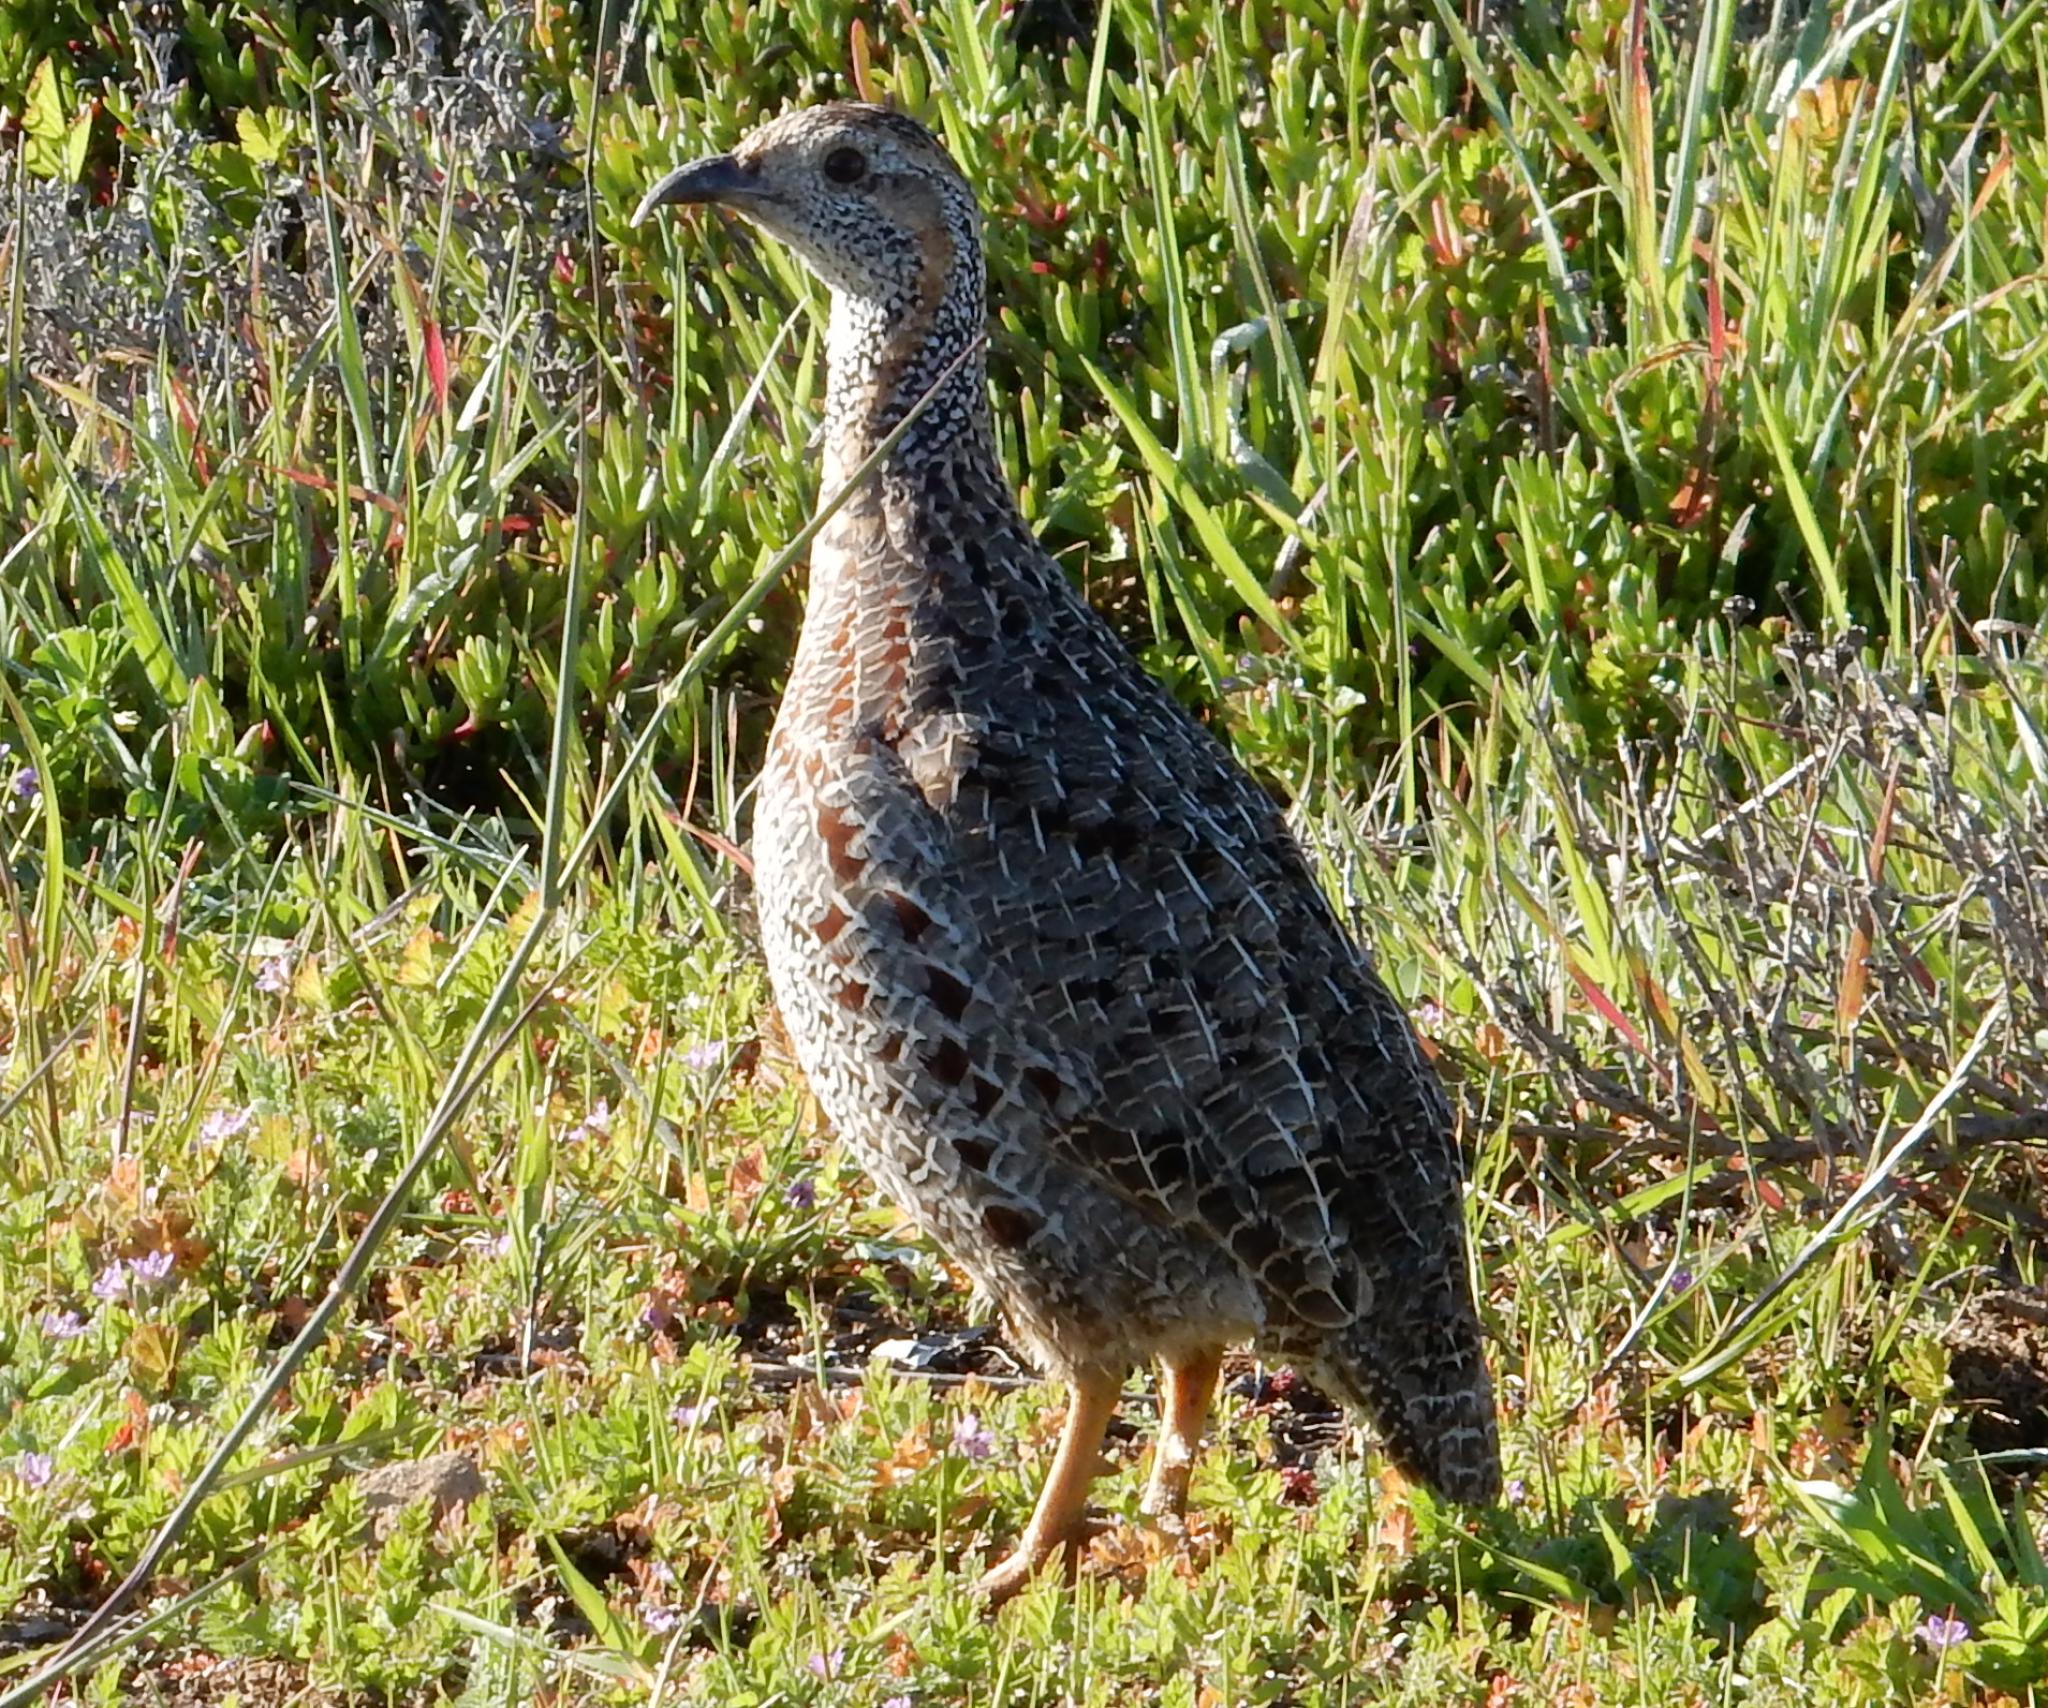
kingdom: Animalia
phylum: Chordata
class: Aves
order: Galliformes
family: Phasianidae
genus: Scleroptila
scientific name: Scleroptila afra
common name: Grey-winged francolin
